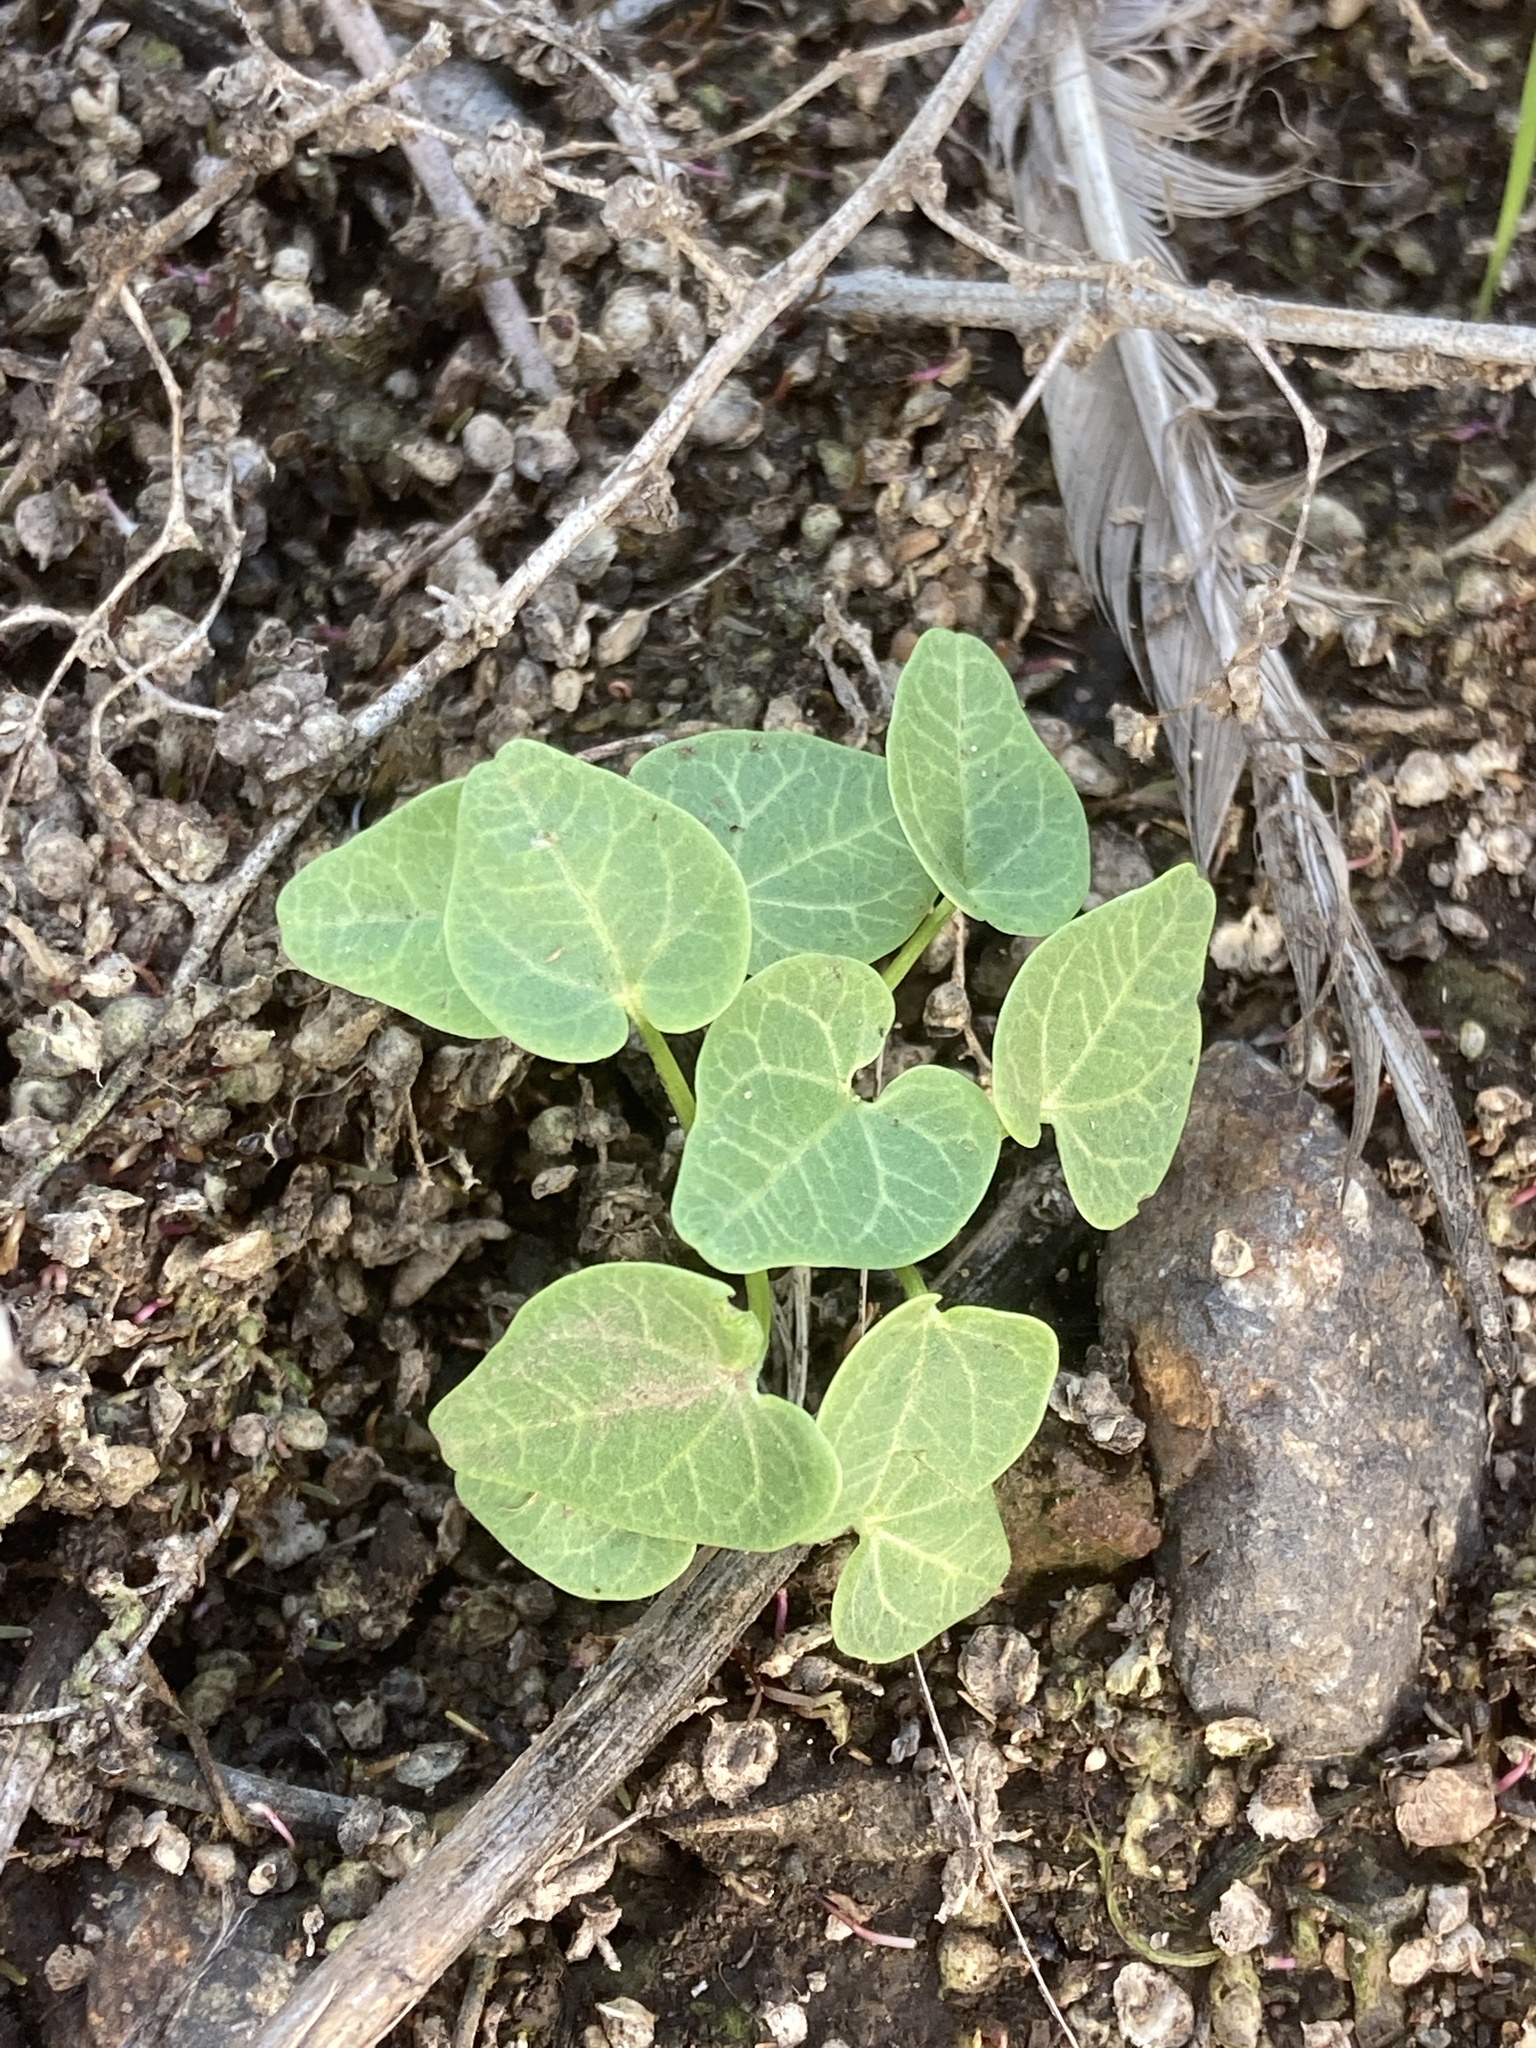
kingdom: Plantae
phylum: Tracheophyta
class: Magnoliopsida
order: Malvales
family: Malvaceae
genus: Malva
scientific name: Malva assurgentiflora
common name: Island mallow
